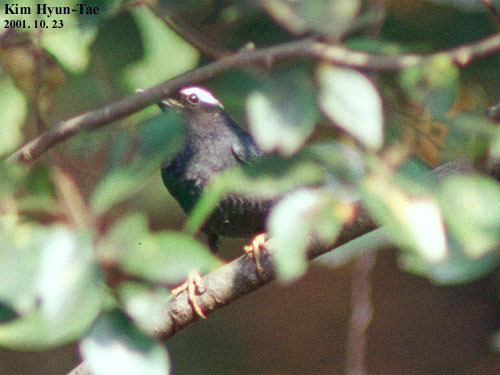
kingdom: Animalia
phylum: Chordata
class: Aves
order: Passeriformes
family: Turdidae
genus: Geokichla
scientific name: Geokichla sibirica
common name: Siberian thrush
